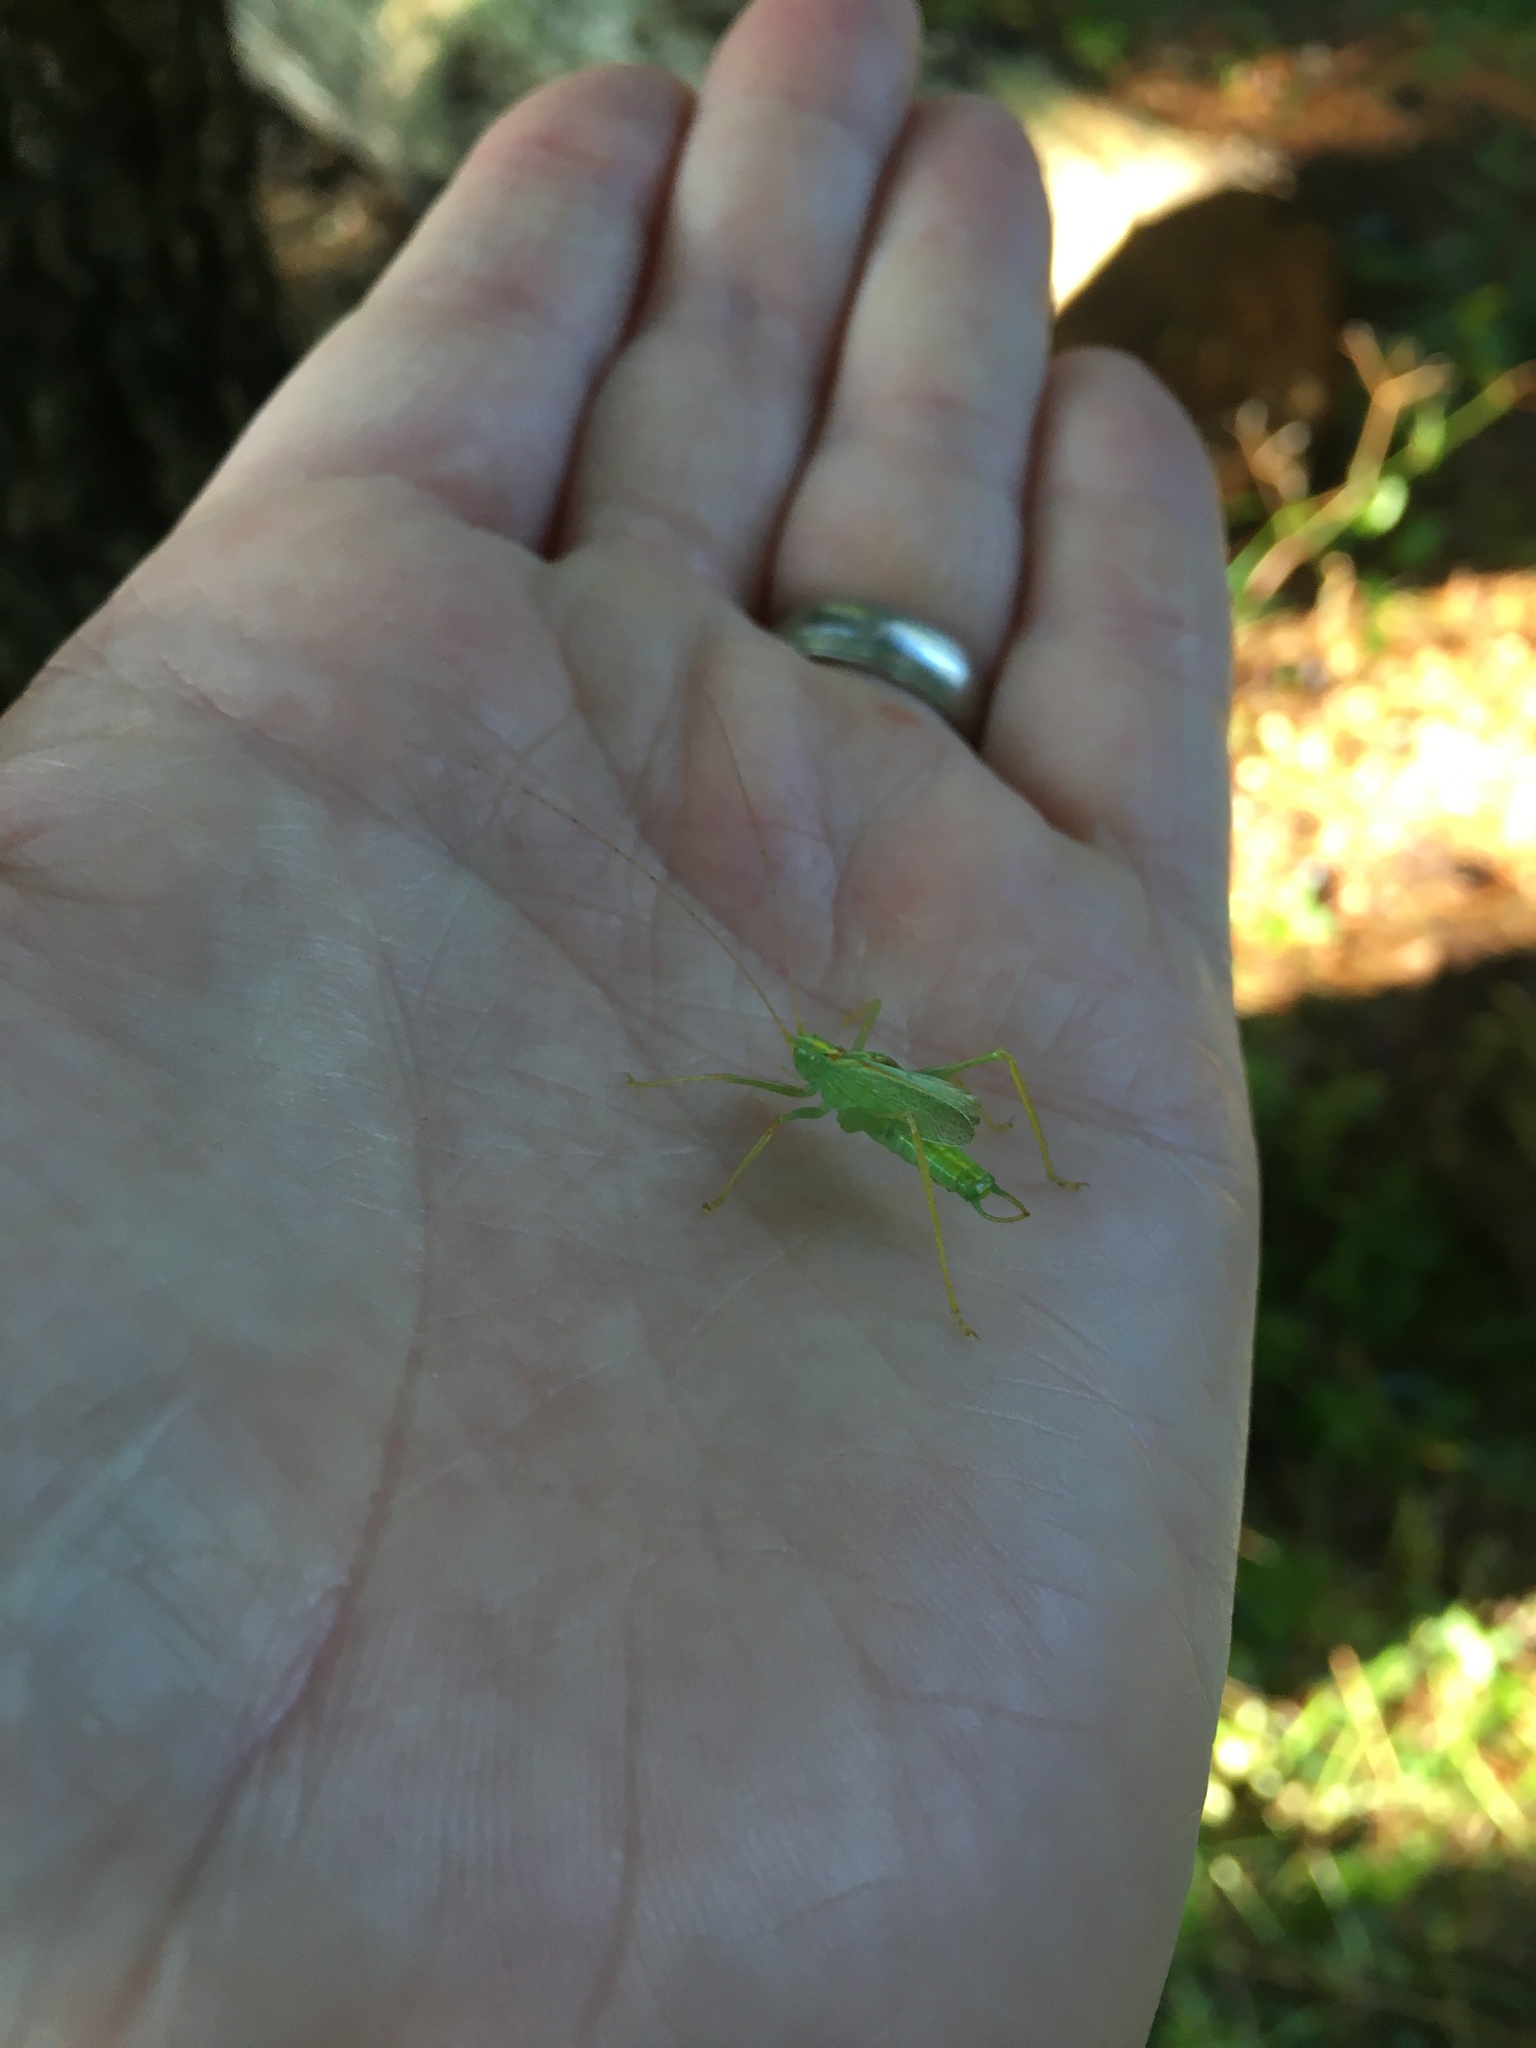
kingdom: Animalia
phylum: Arthropoda
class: Insecta
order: Orthoptera
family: Tettigoniidae
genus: Meconema
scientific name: Meconema thalassinum
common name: Oak bush-cricket
